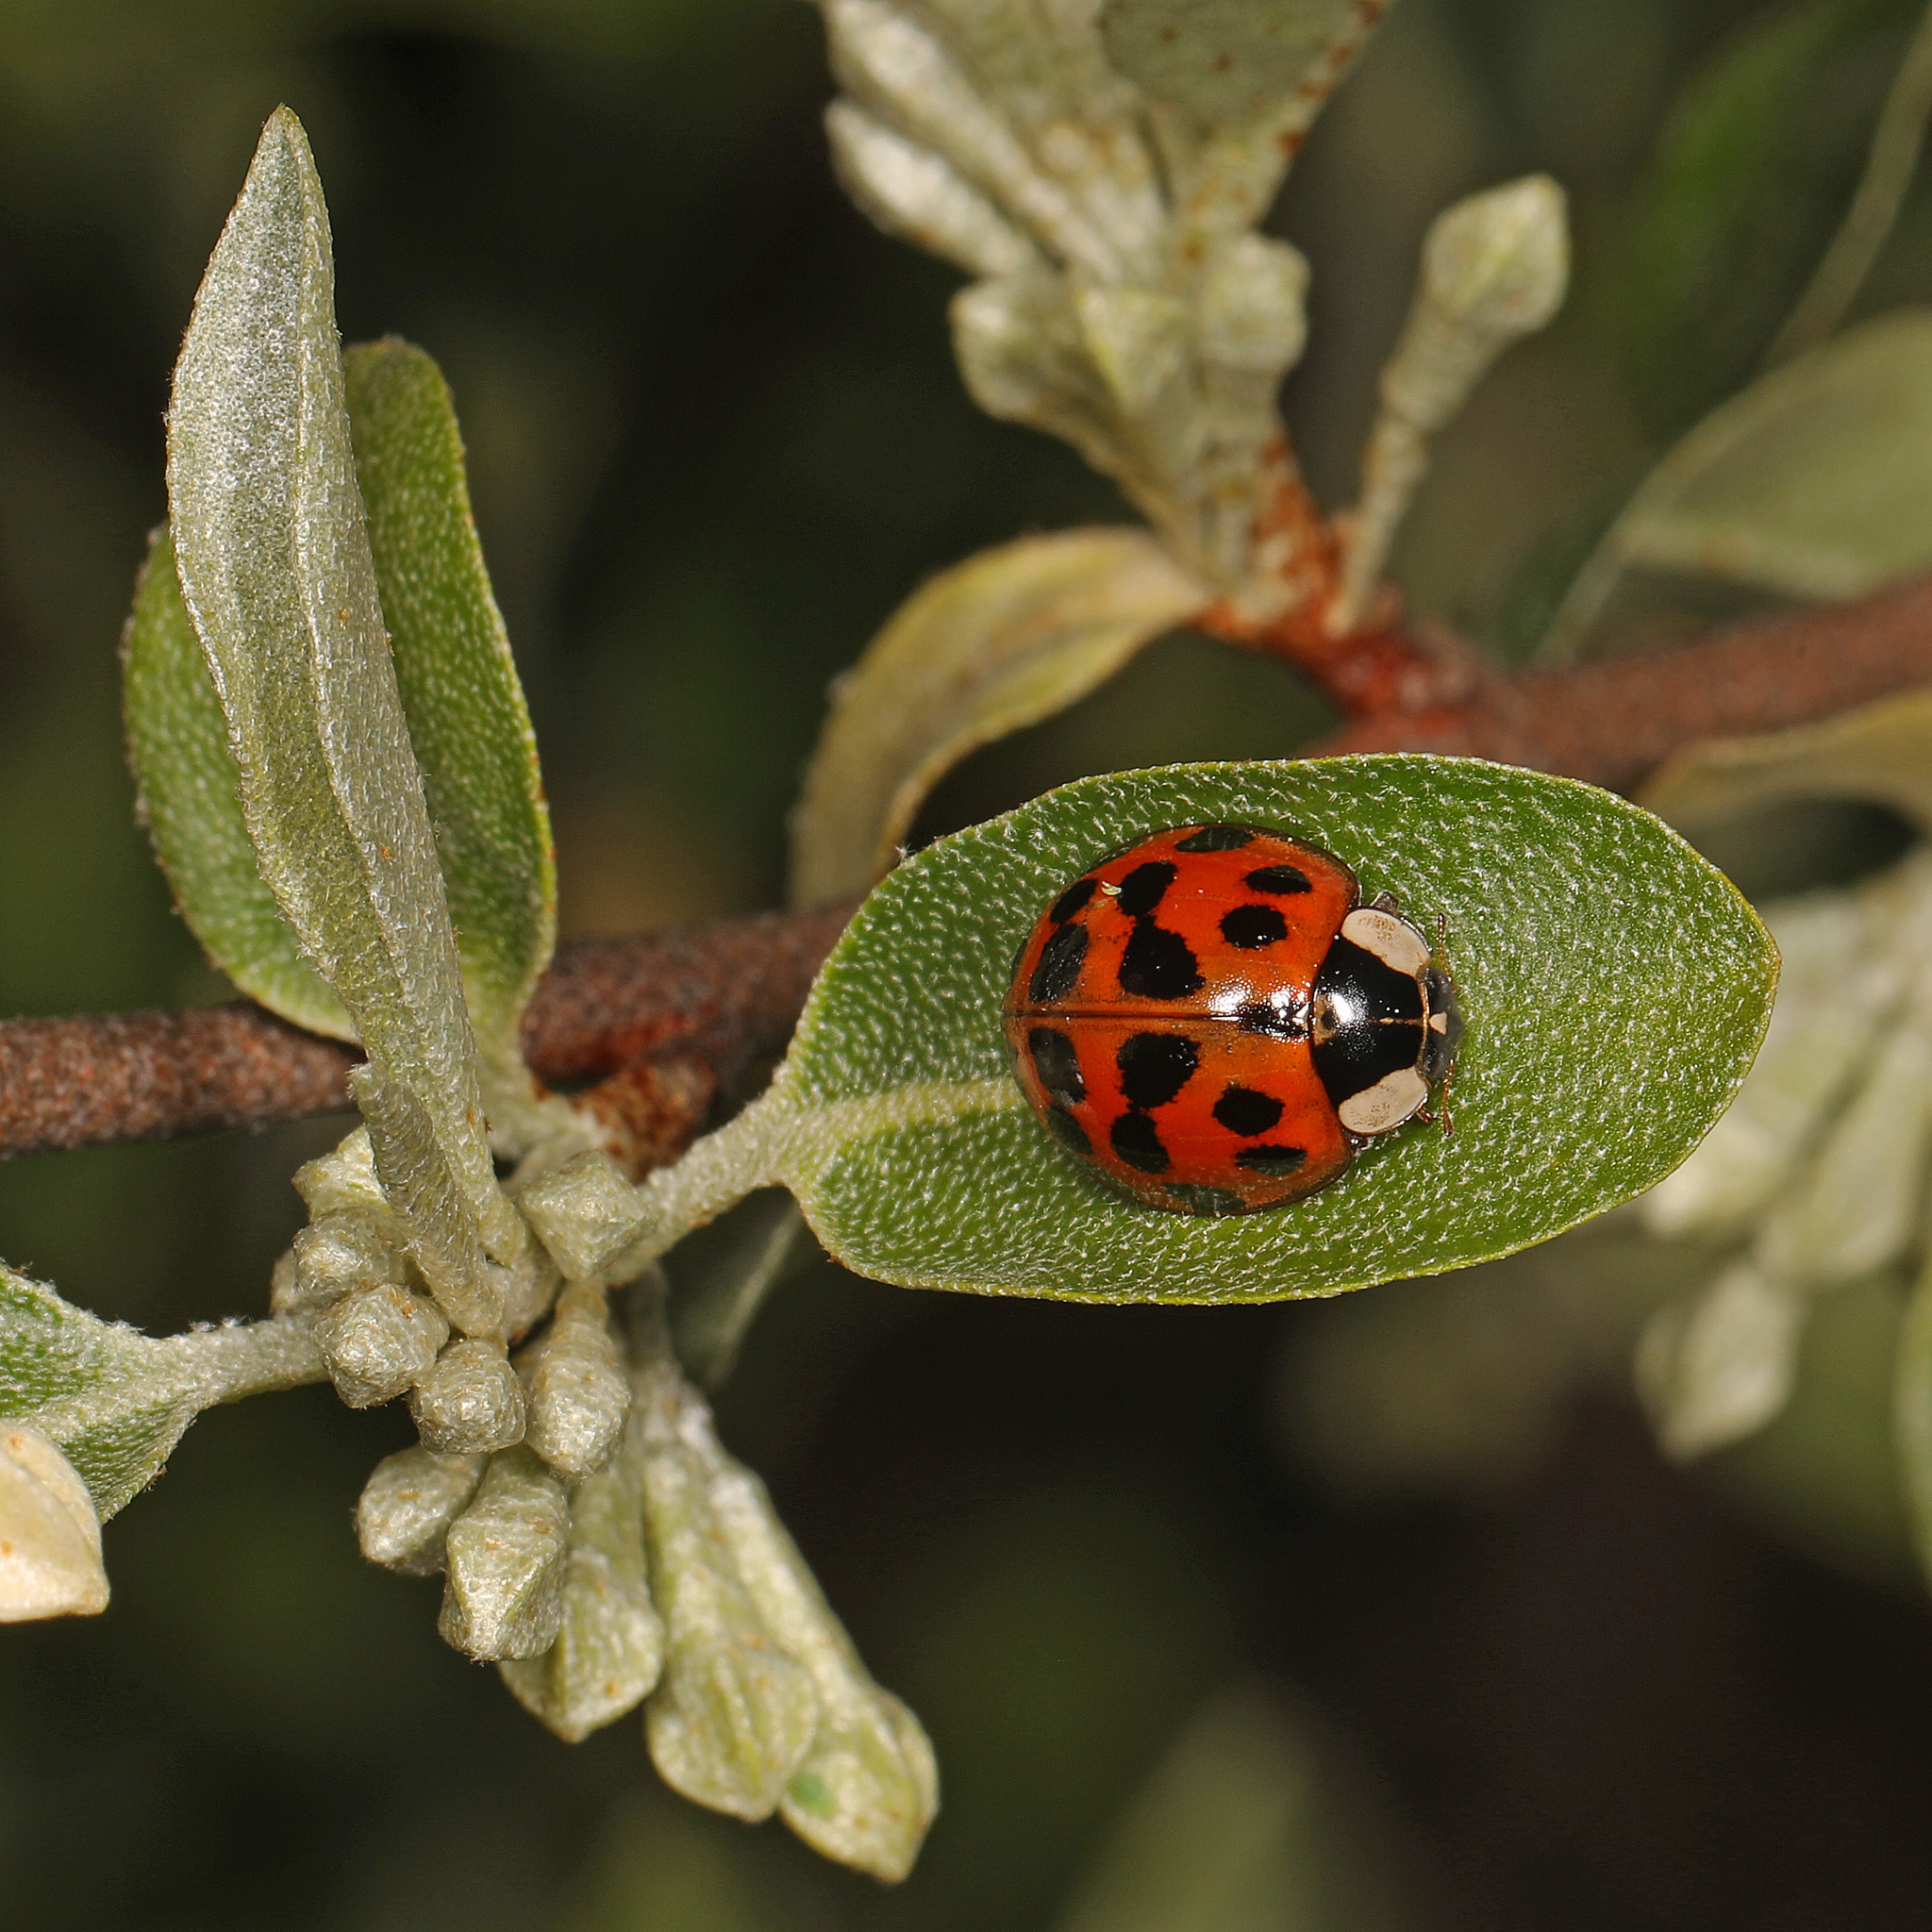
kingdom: Animalia
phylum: Arthropoda
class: Insecta
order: Coleoptera
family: Coccinellidae
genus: Harmonia
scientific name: Harmonia axyridis
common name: Harlequin ladybird
